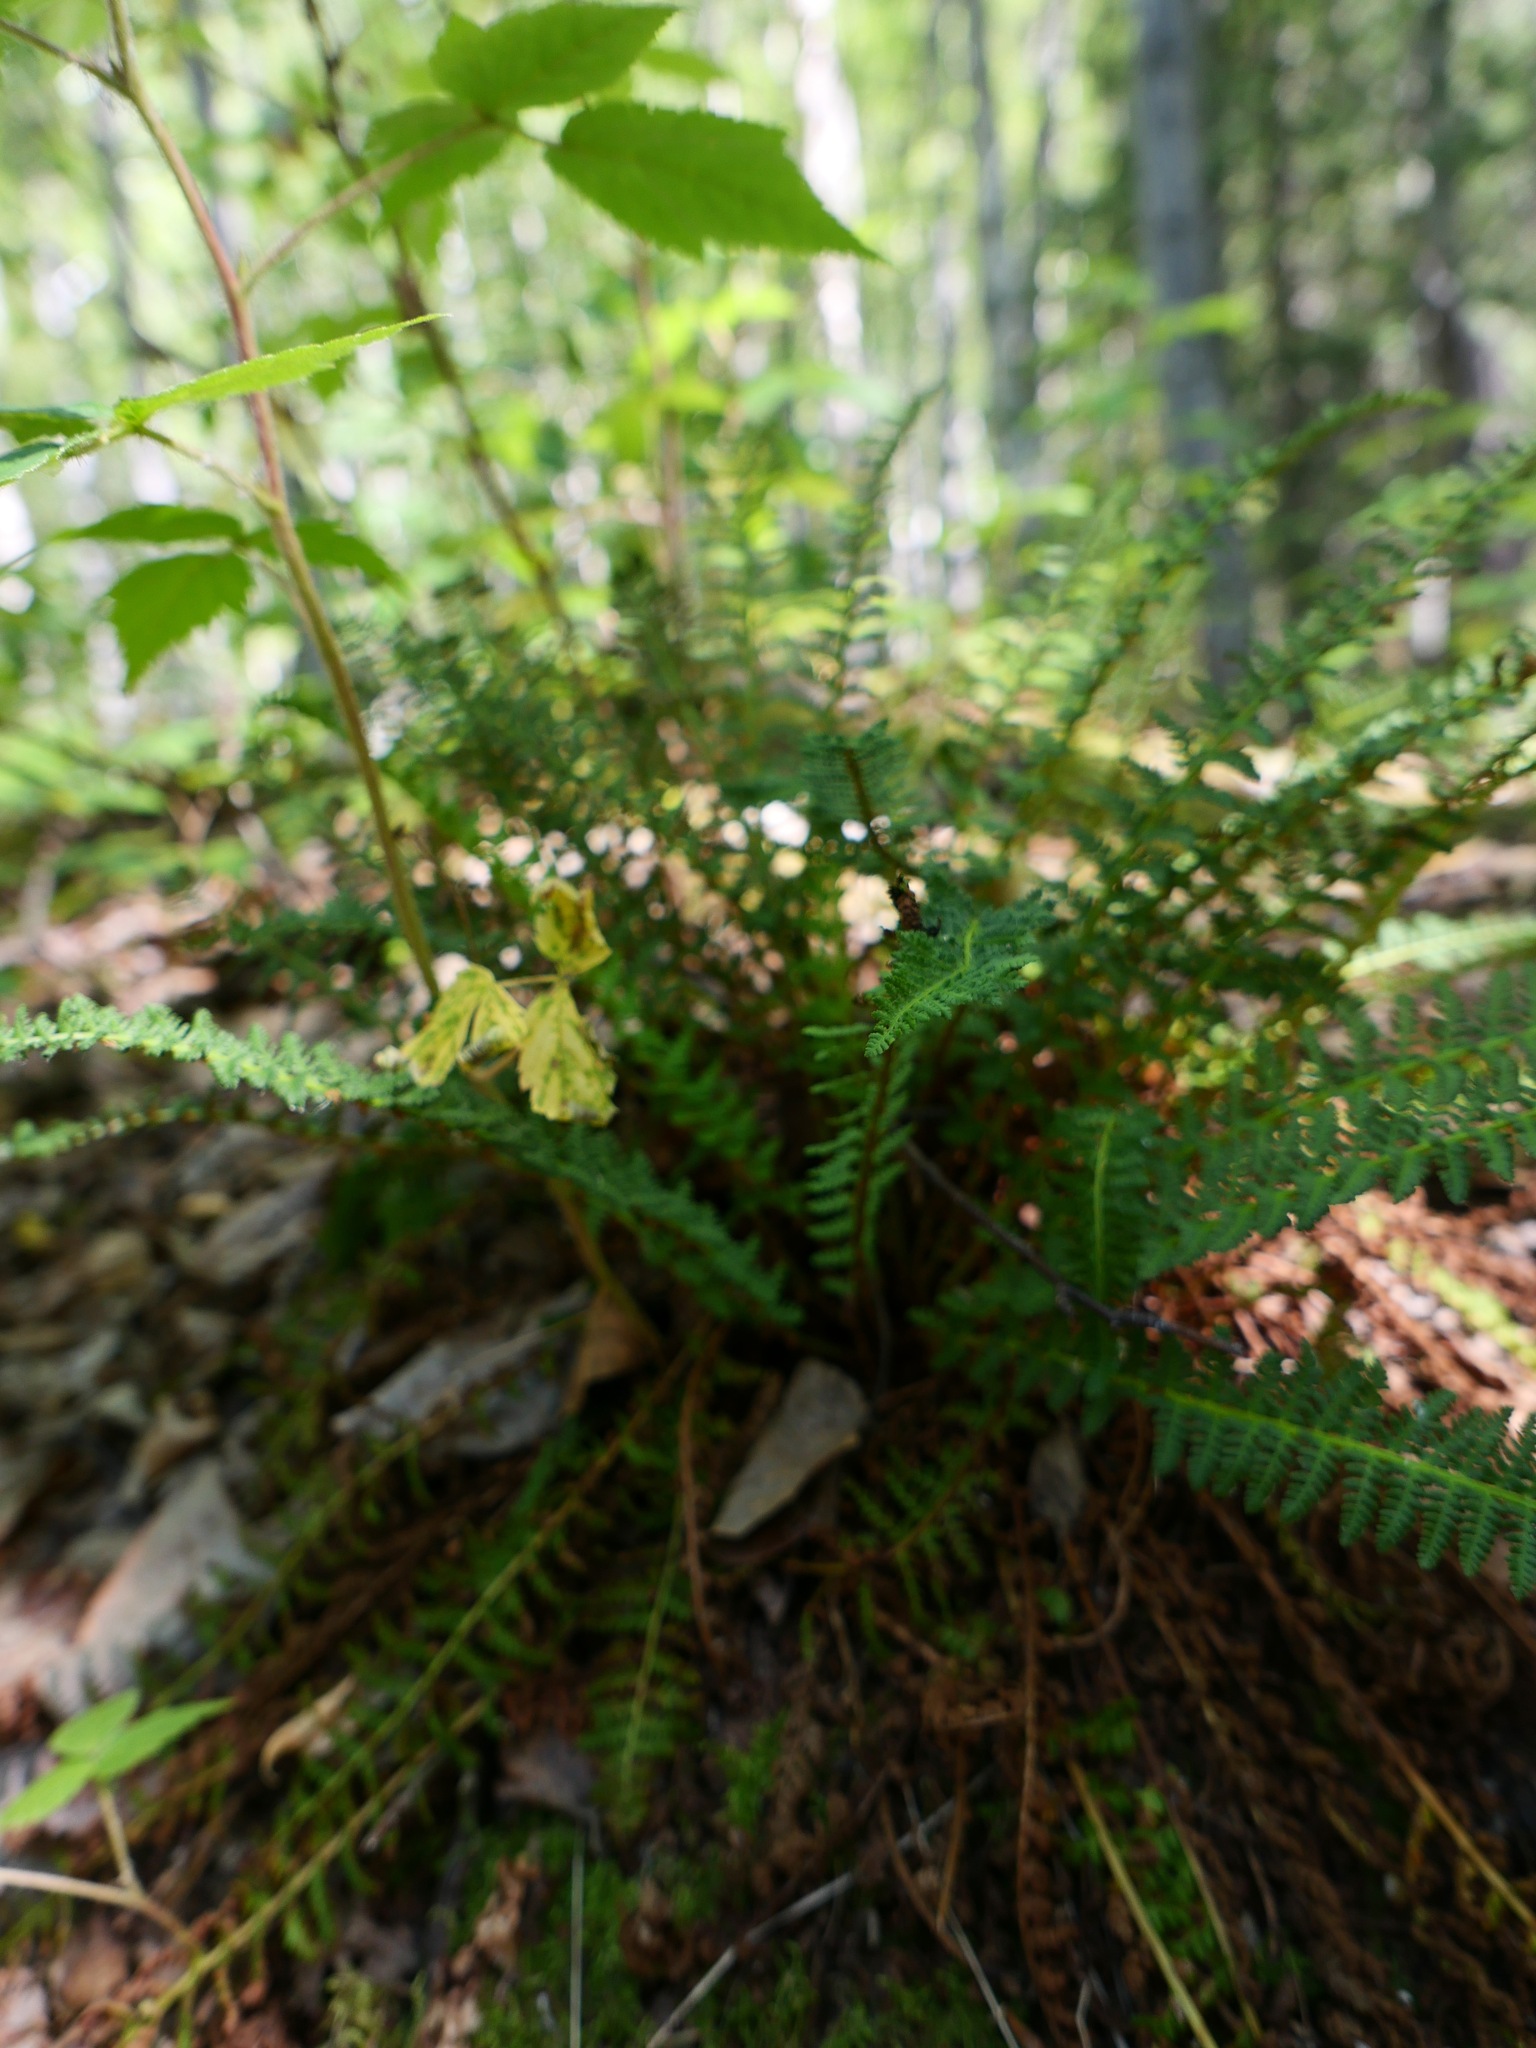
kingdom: Plantae
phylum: Tracheophyta
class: Polypodiopsida
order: Polypodiales
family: Dryopteridaceae
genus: Dryopteris
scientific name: Dryopteris fragrans
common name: Fragrant wood fern
